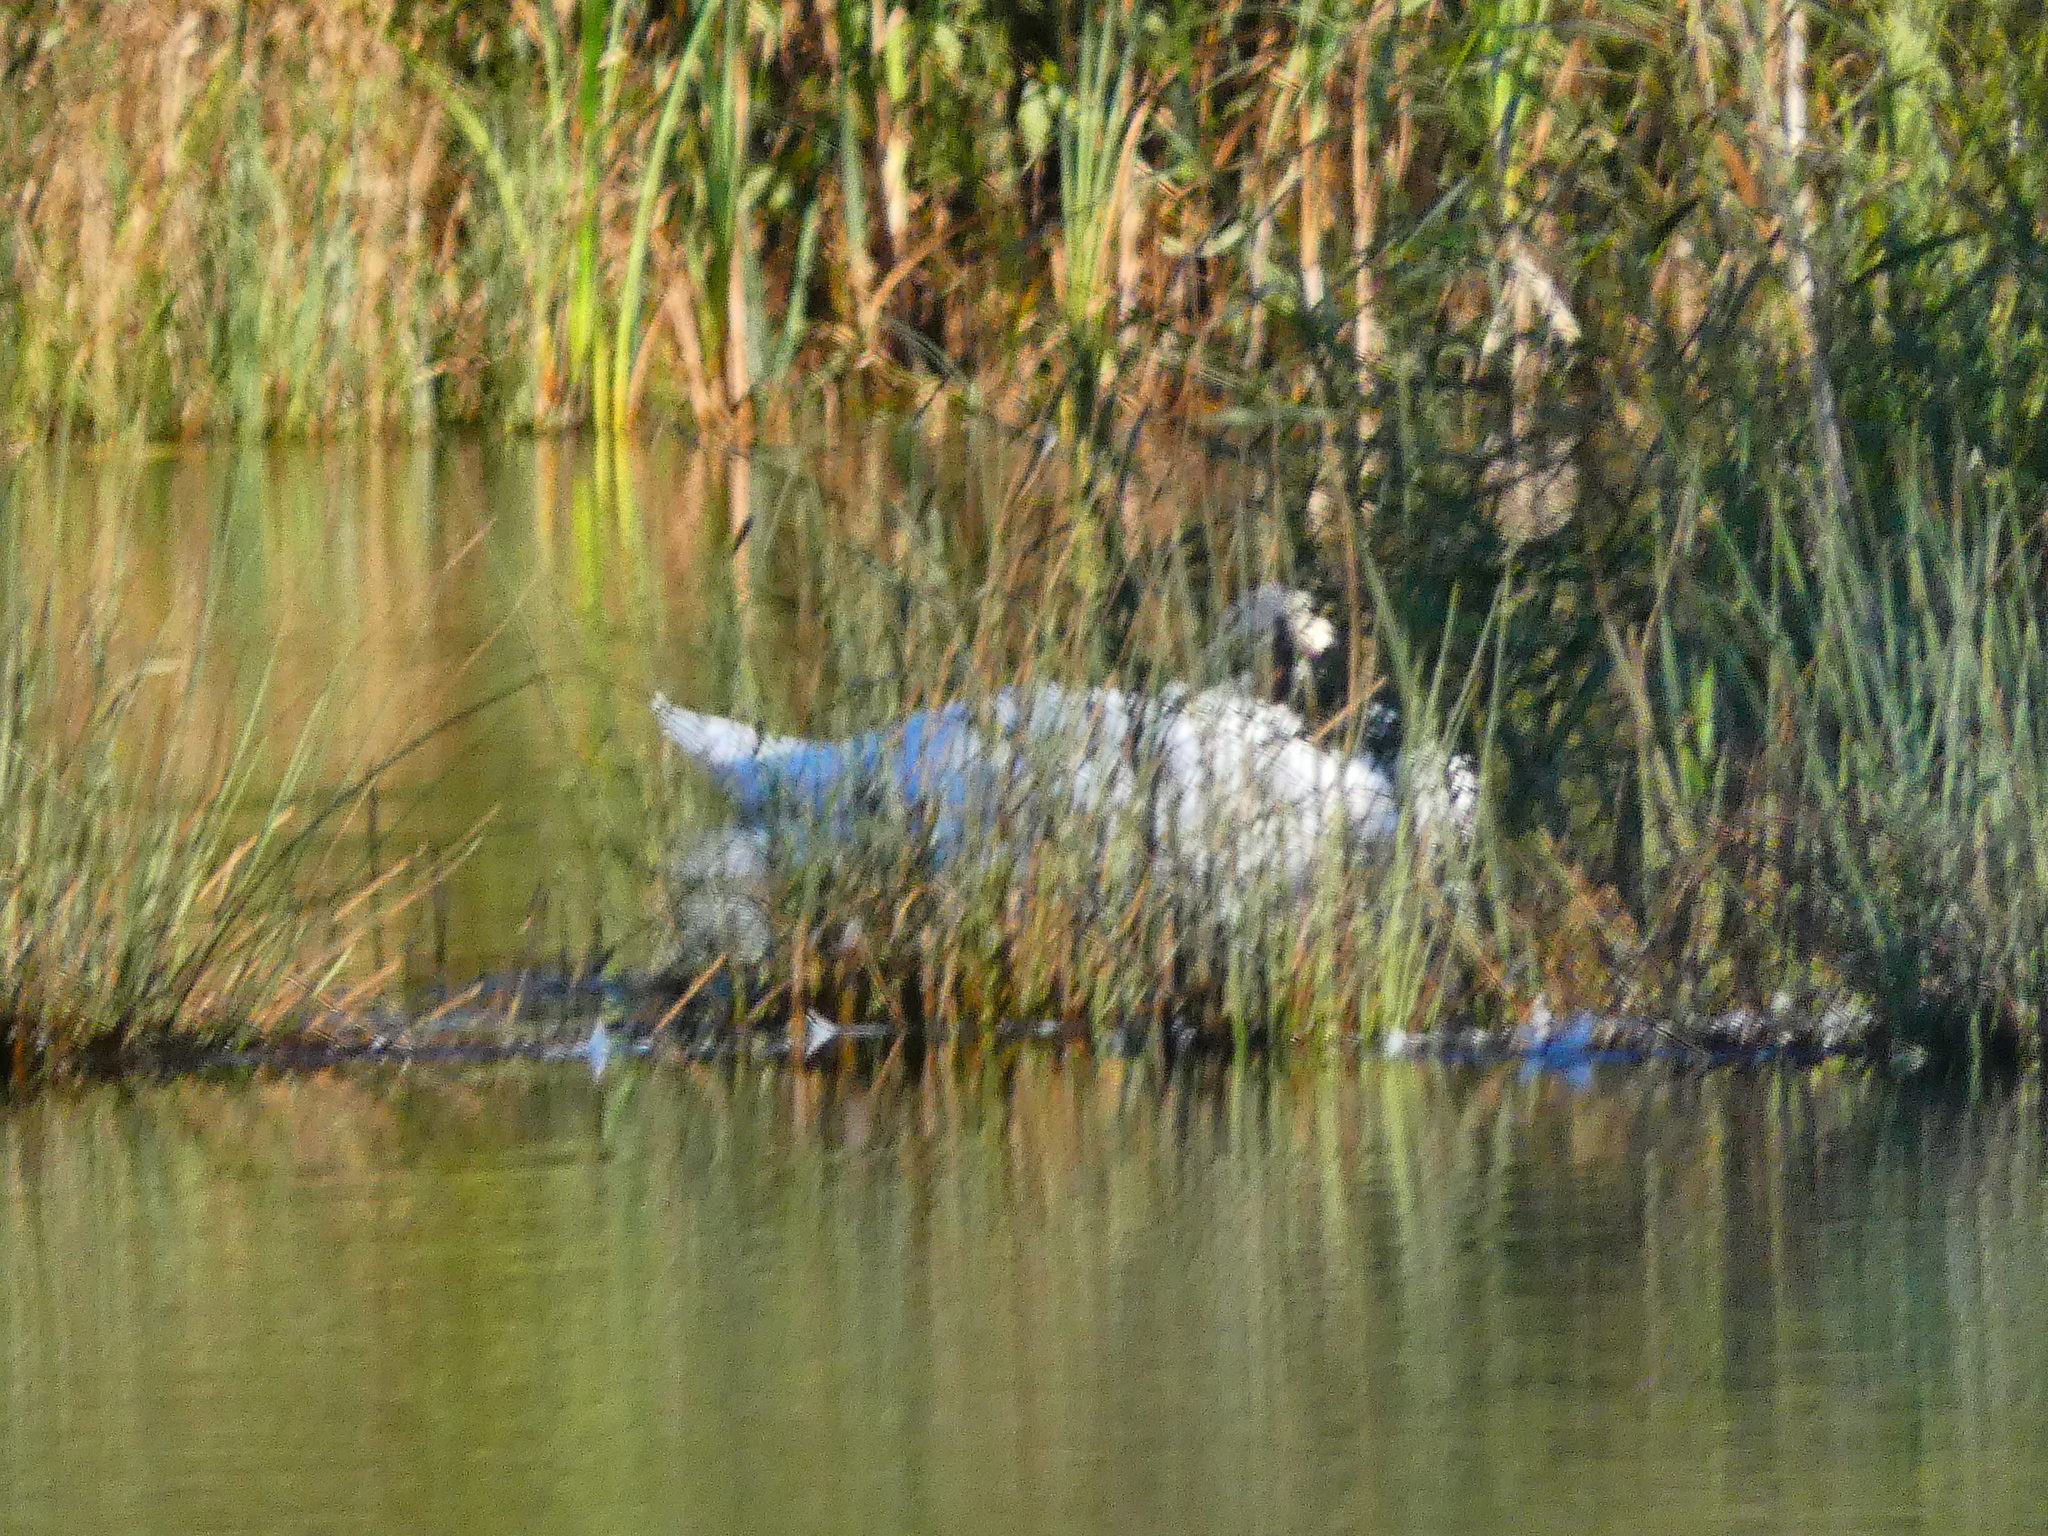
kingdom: Animalia
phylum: Chordata
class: Aves
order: Anseriformes
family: Anatidae
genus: Cygnus
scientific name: Cygnus olor
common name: Mute swan
